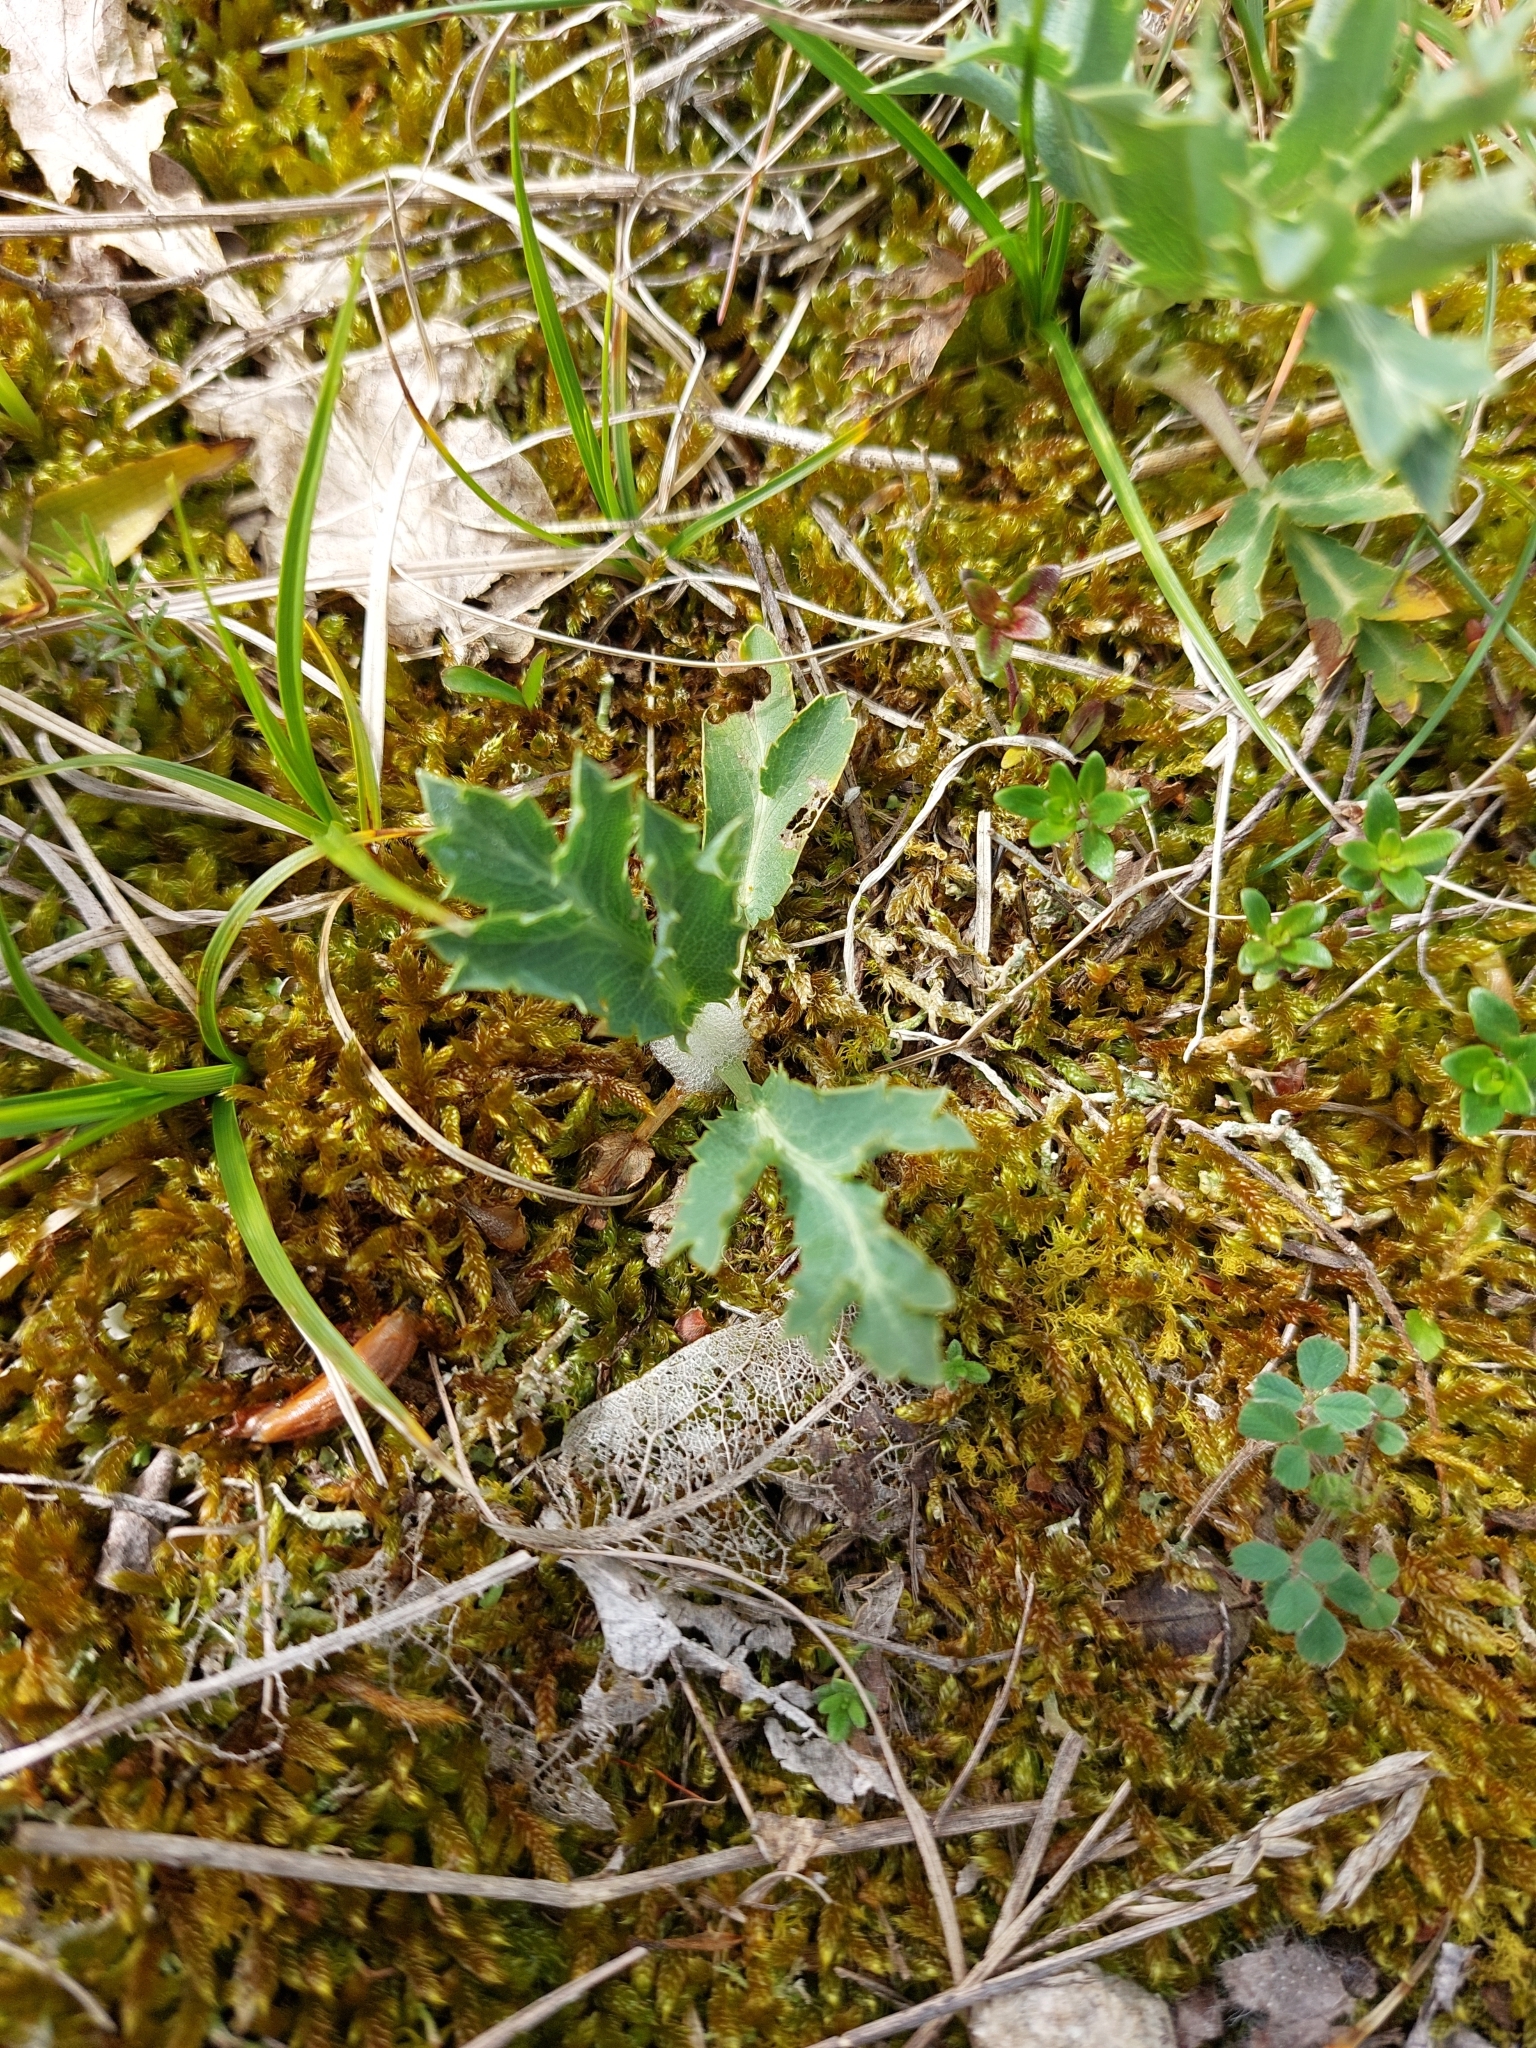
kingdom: Plantae
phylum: Tracheophyta
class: Magnoliopsida
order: Apiales
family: Apiaceae
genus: Eryngium
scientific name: Eryngium campestre
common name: Field eryngo
